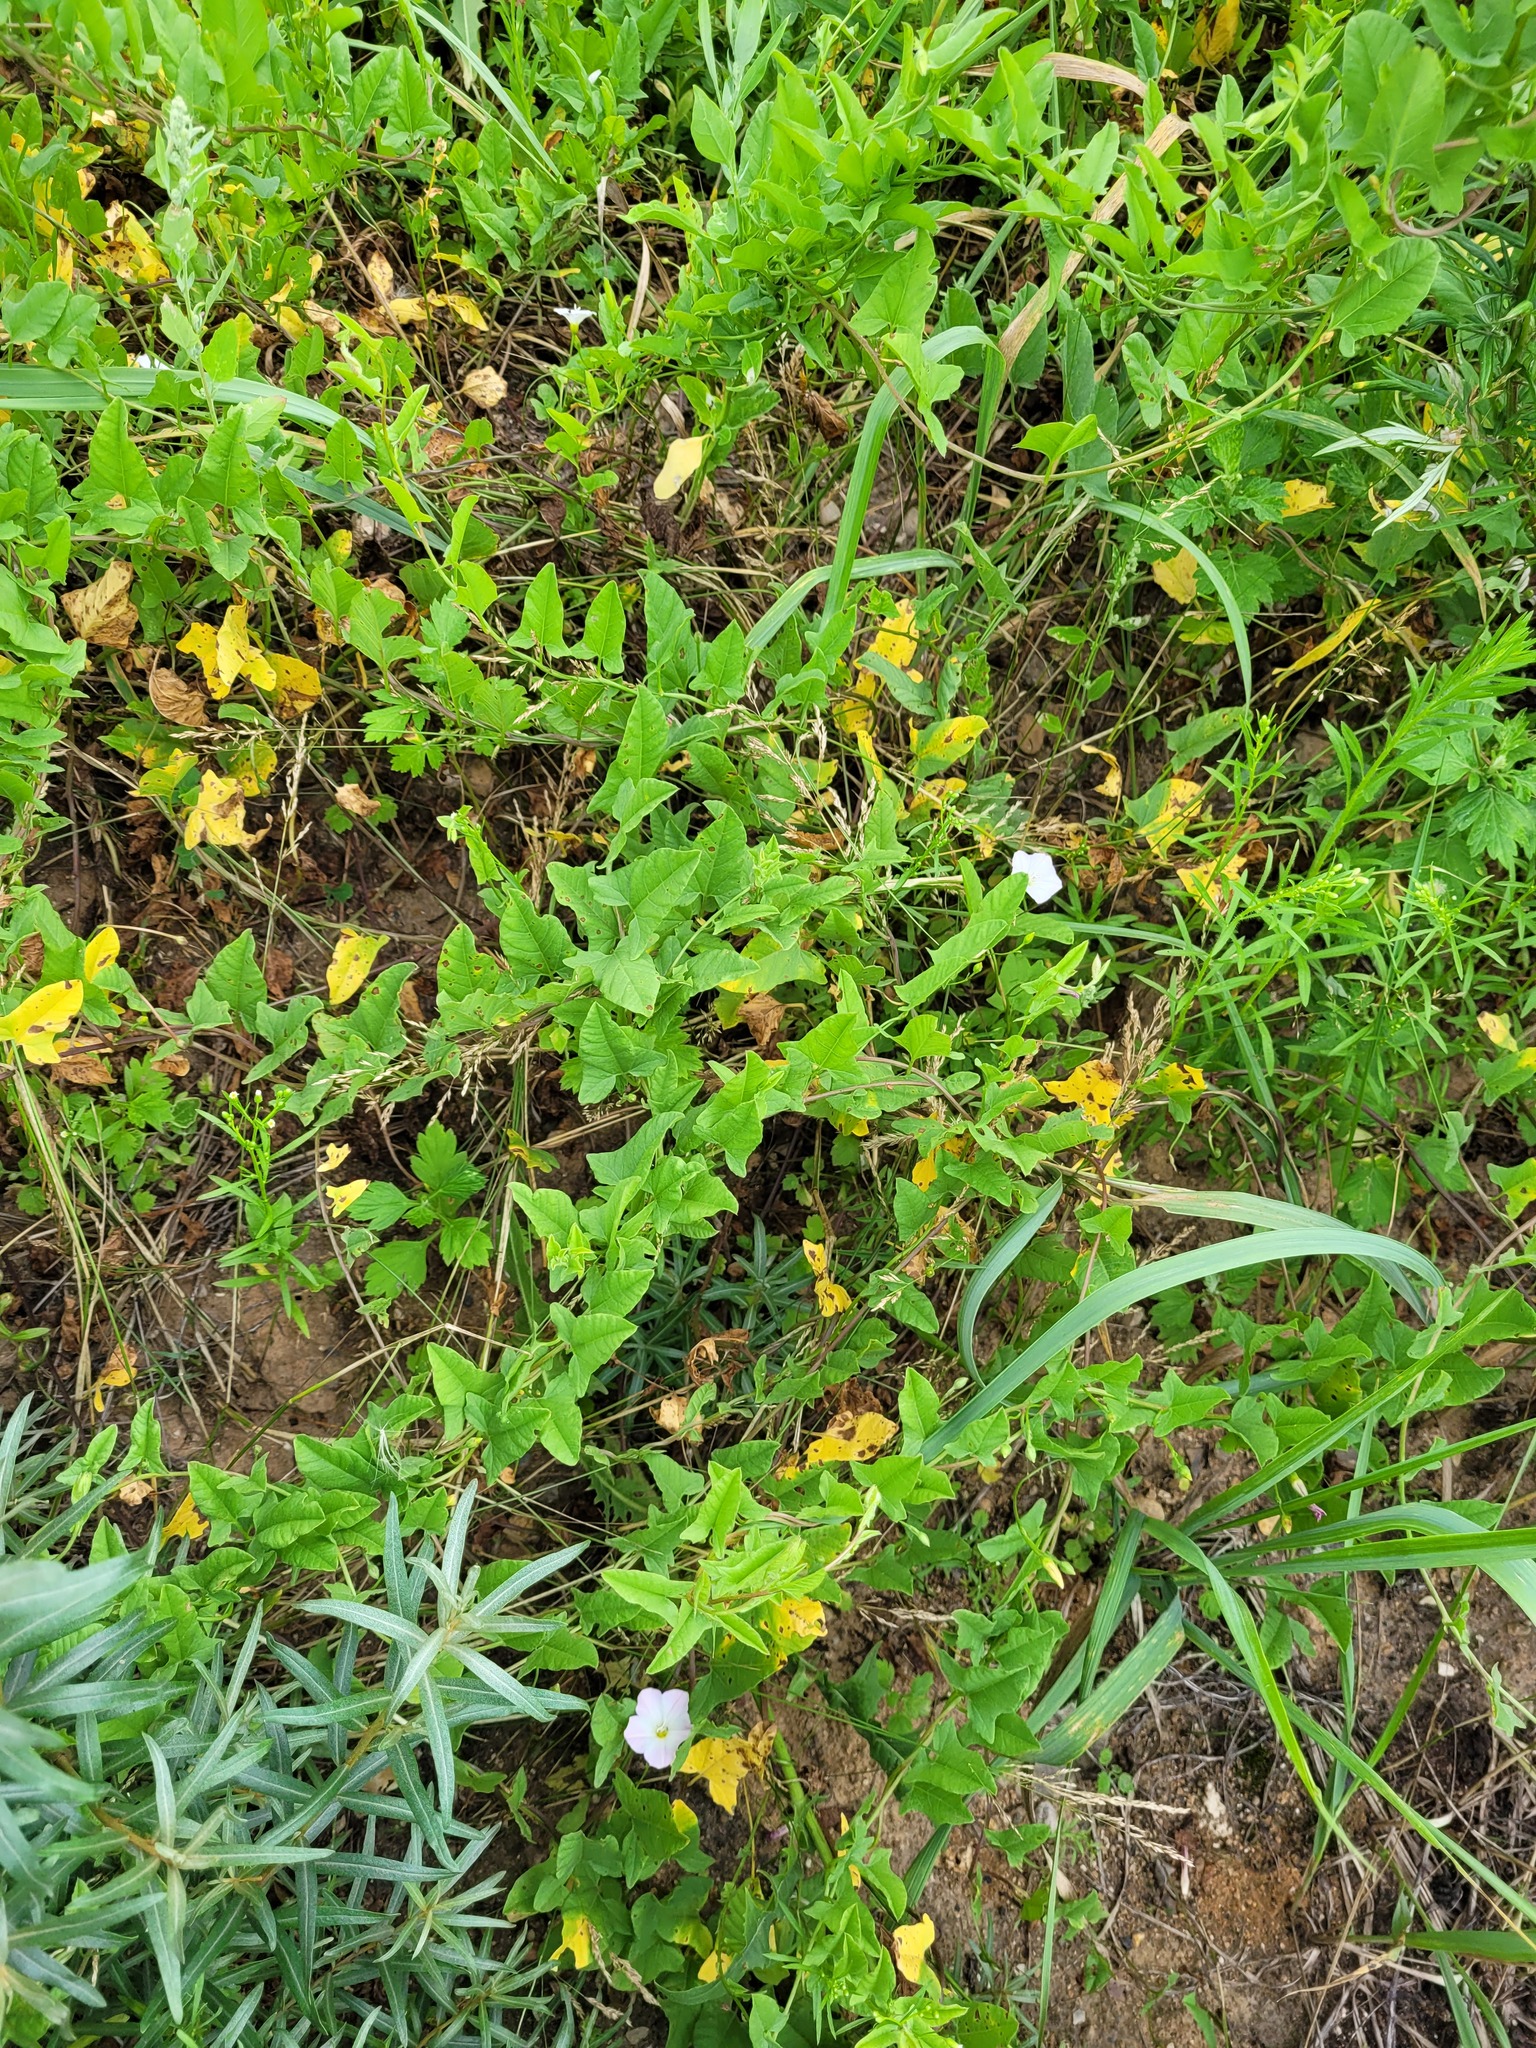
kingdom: Plantae
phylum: Tracheophyta
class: Magnoliopsida
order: Solanales
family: Convolvulaceae
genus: Convolvulus
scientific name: Convolvulus arvensis
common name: Field bindweed
